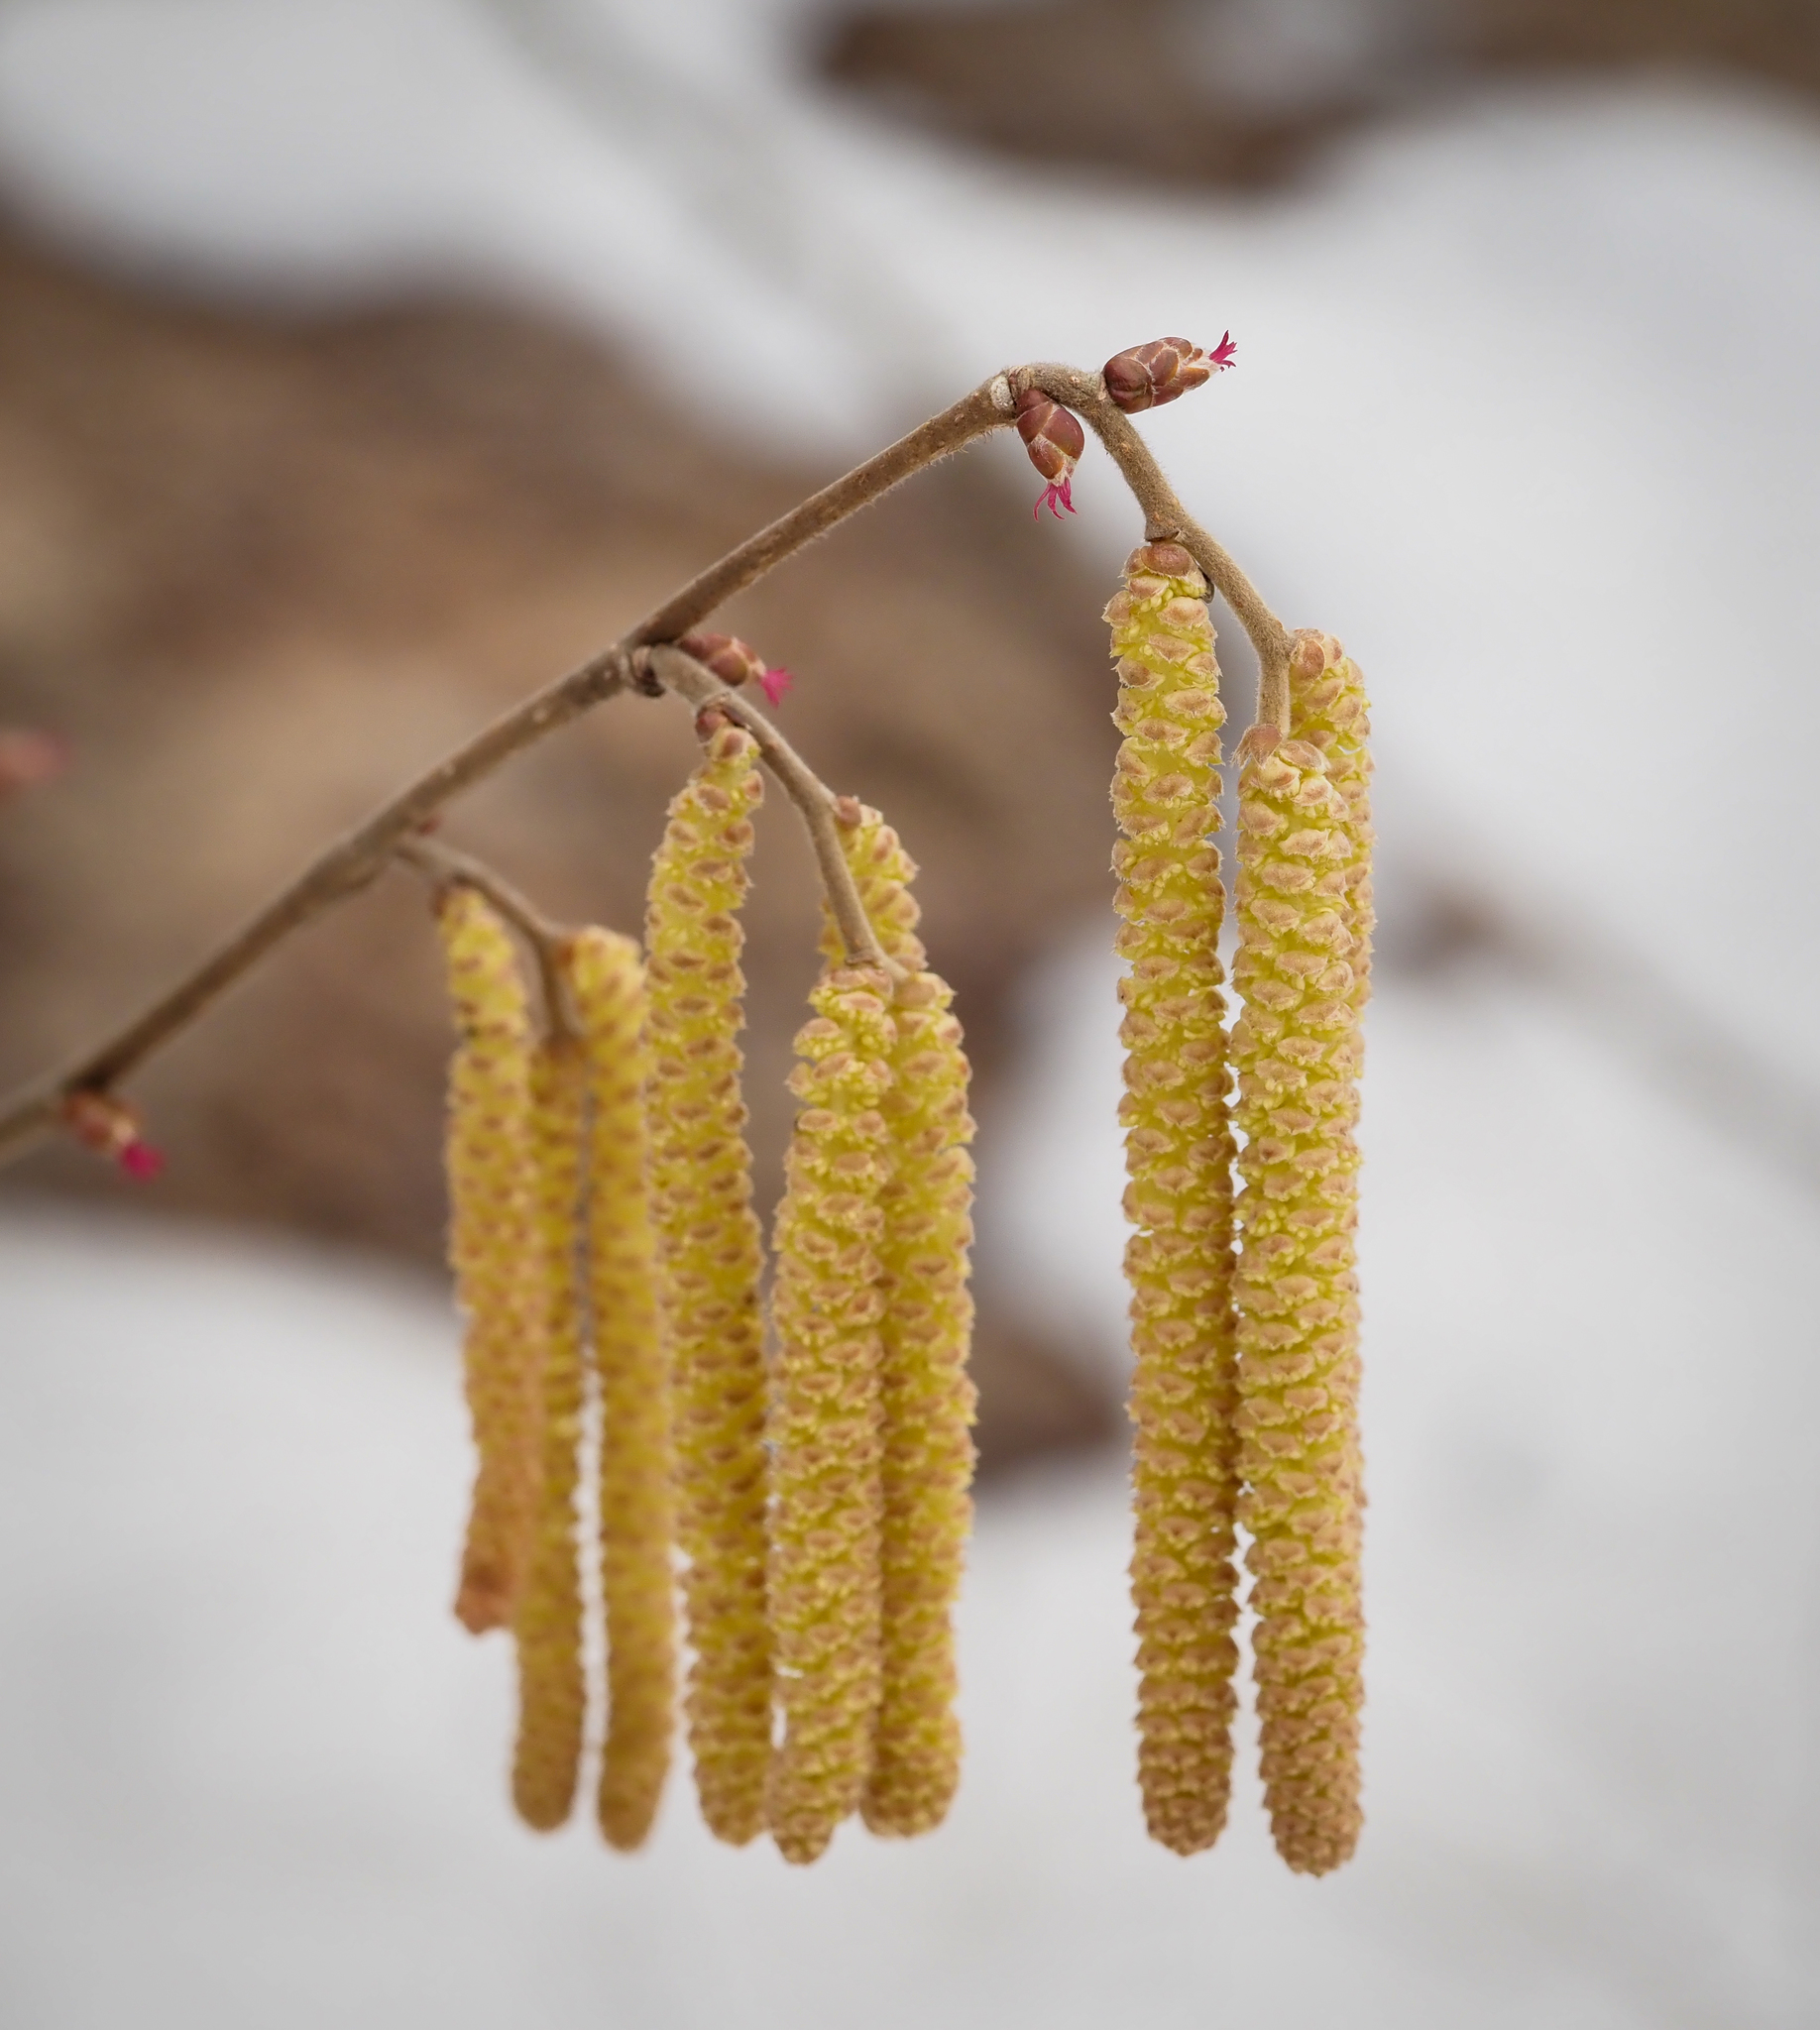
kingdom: Plantae
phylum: Tracheophyta
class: Magnoliopsida
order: Fagales
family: Betulaceae
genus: Corylus
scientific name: Corylus avellana
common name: European hazel
